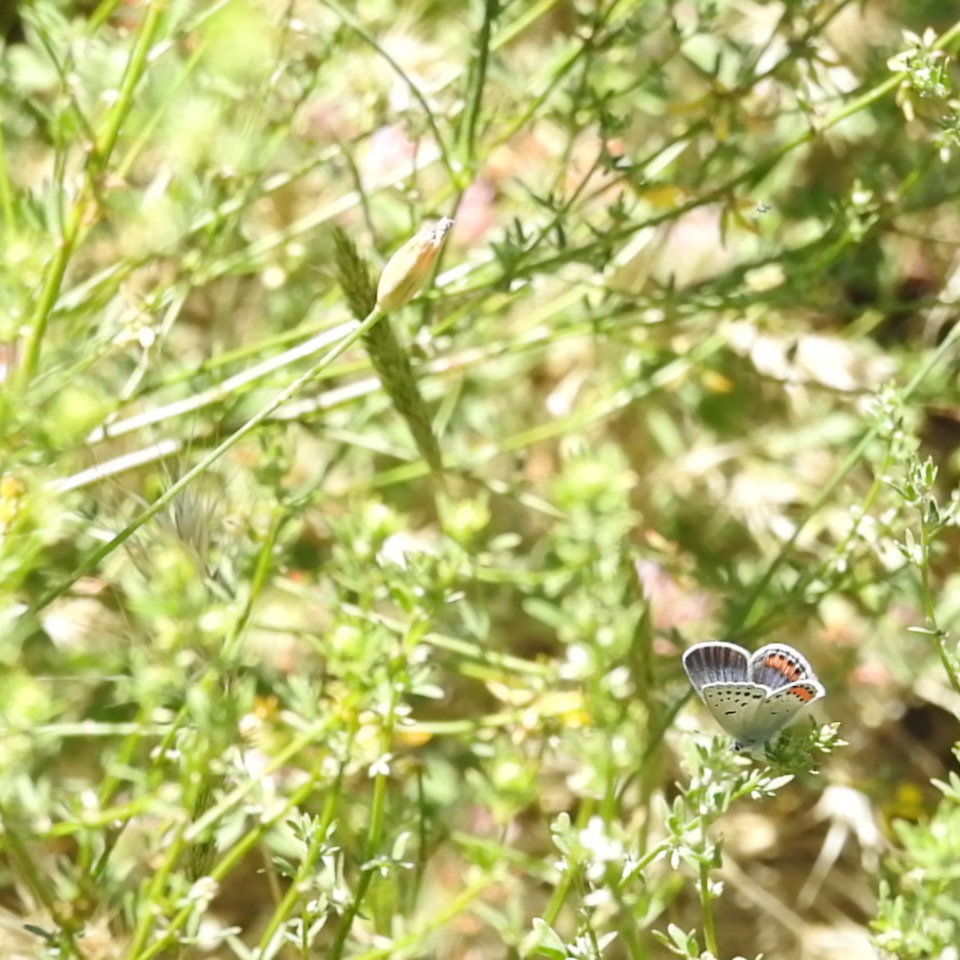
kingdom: Animalia
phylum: Arthropoda
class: Insecta
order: Lepidoptera
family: Lycaenidae
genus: Icaricia
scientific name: Icaricia acmon
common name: Acmon blue
